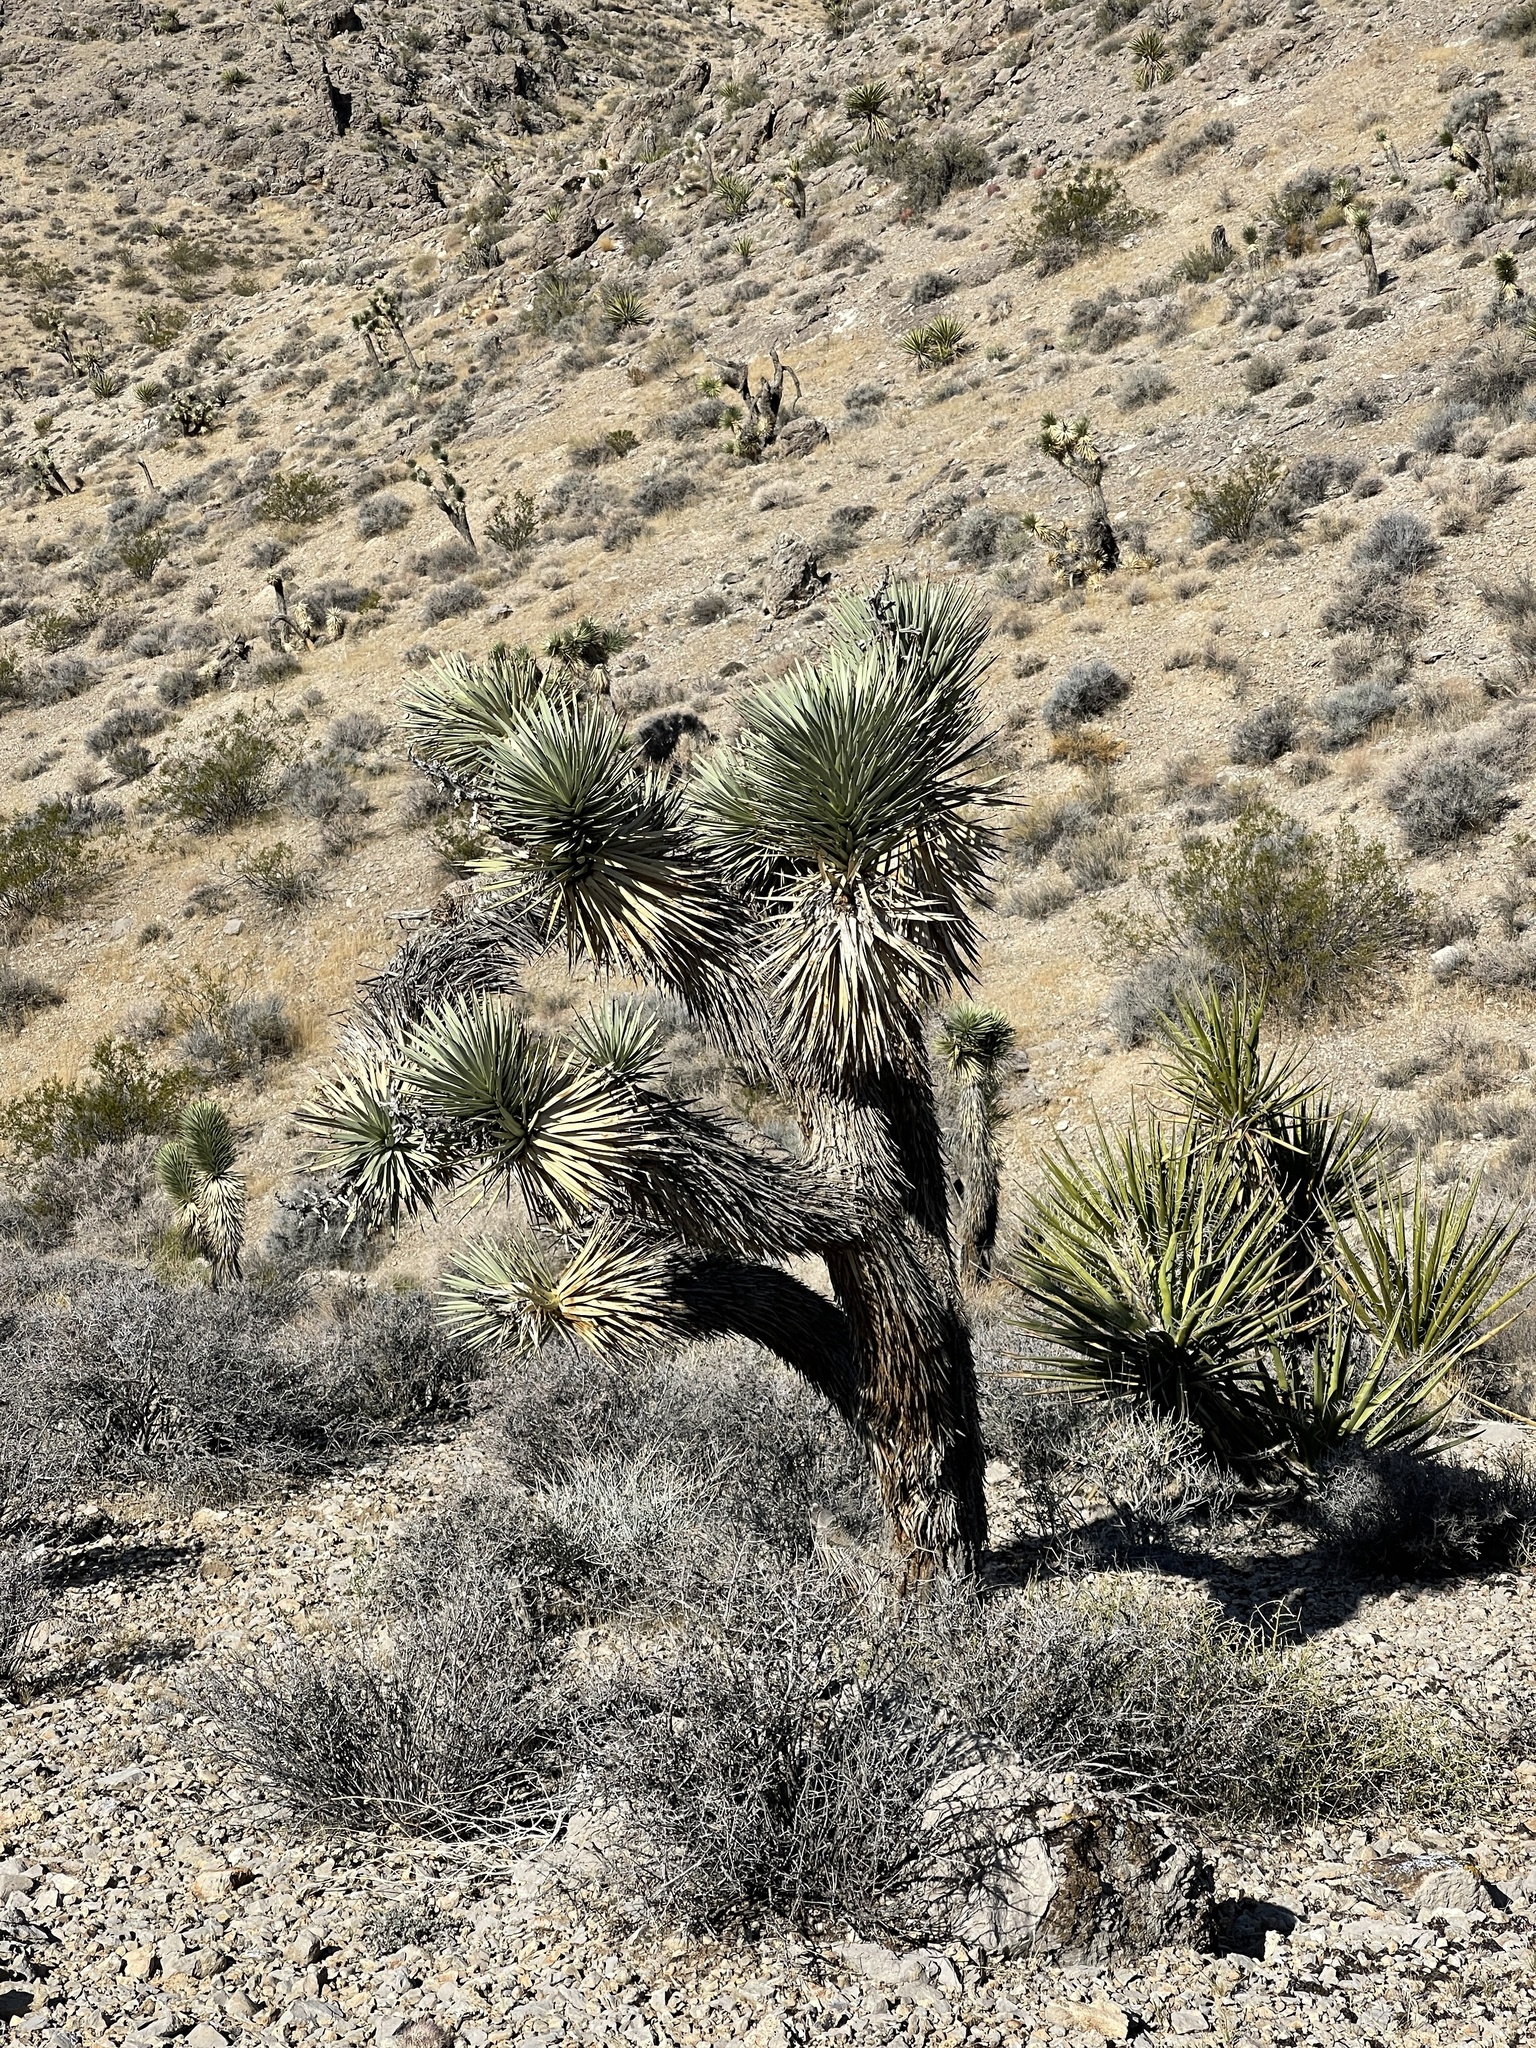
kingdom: Plantae
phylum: Tracheophyta
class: Liliopsida
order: Asparagales
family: Asparagaceae
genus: Yucca
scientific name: Yucca brevifolia
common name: Joshua tree
